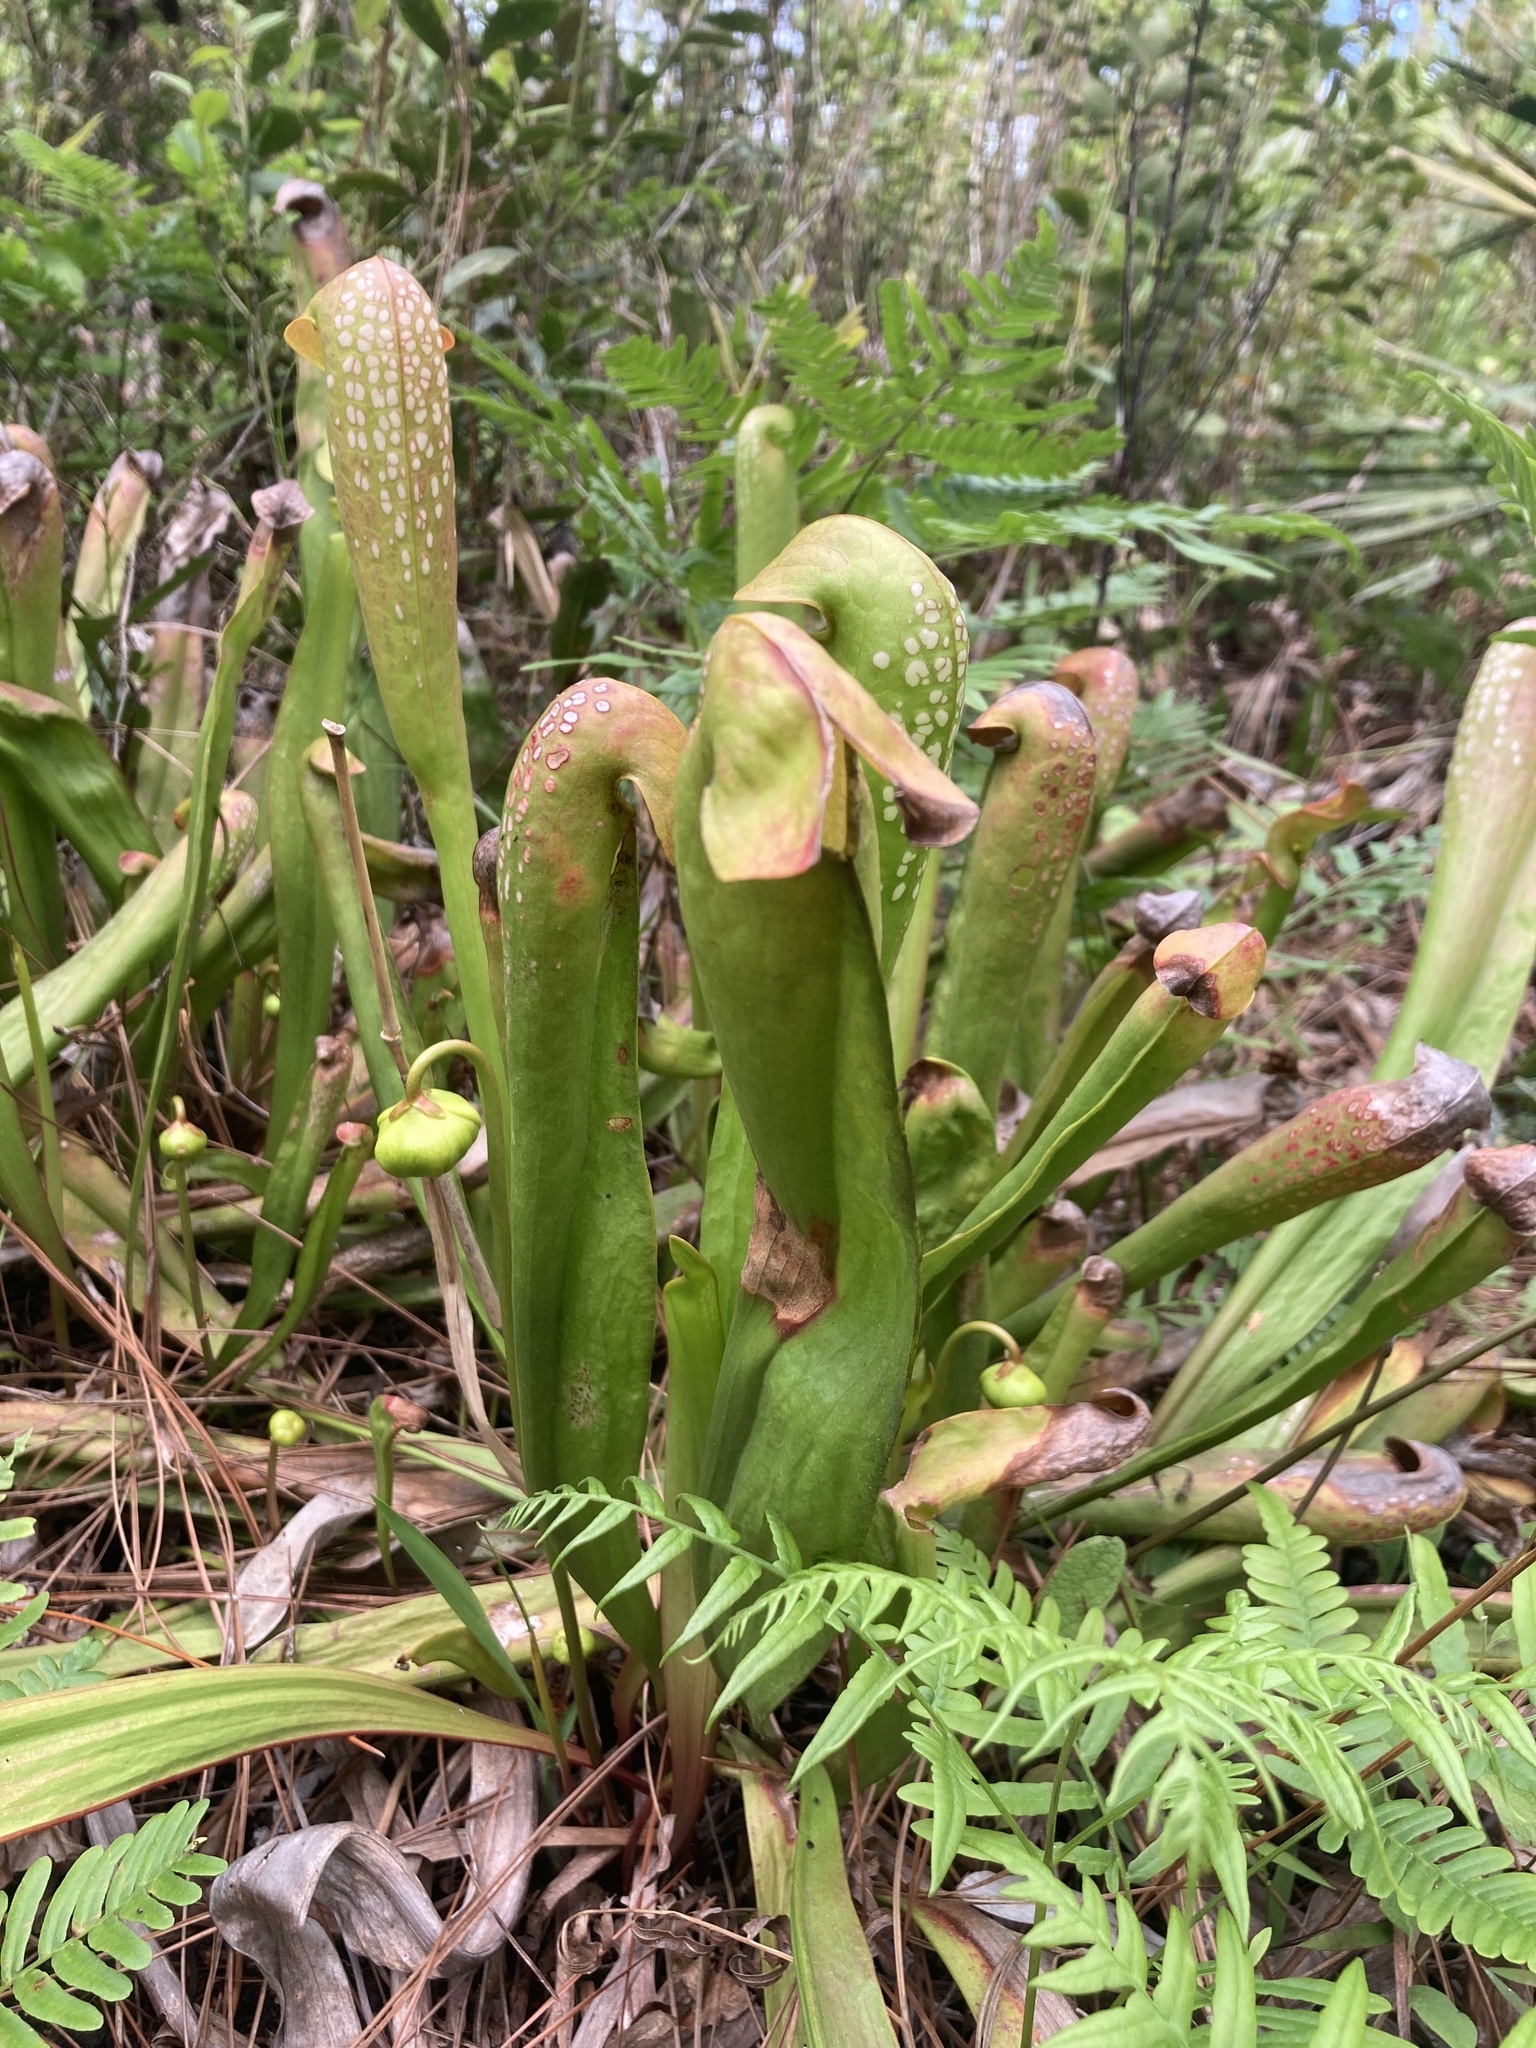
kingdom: Plantae
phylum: Tracheophyta
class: Magnoliopsida
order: Ericales
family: Sarraceniaceae
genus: Sarracenia
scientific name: Sarracenia minor
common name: Rainhat-trumpet
